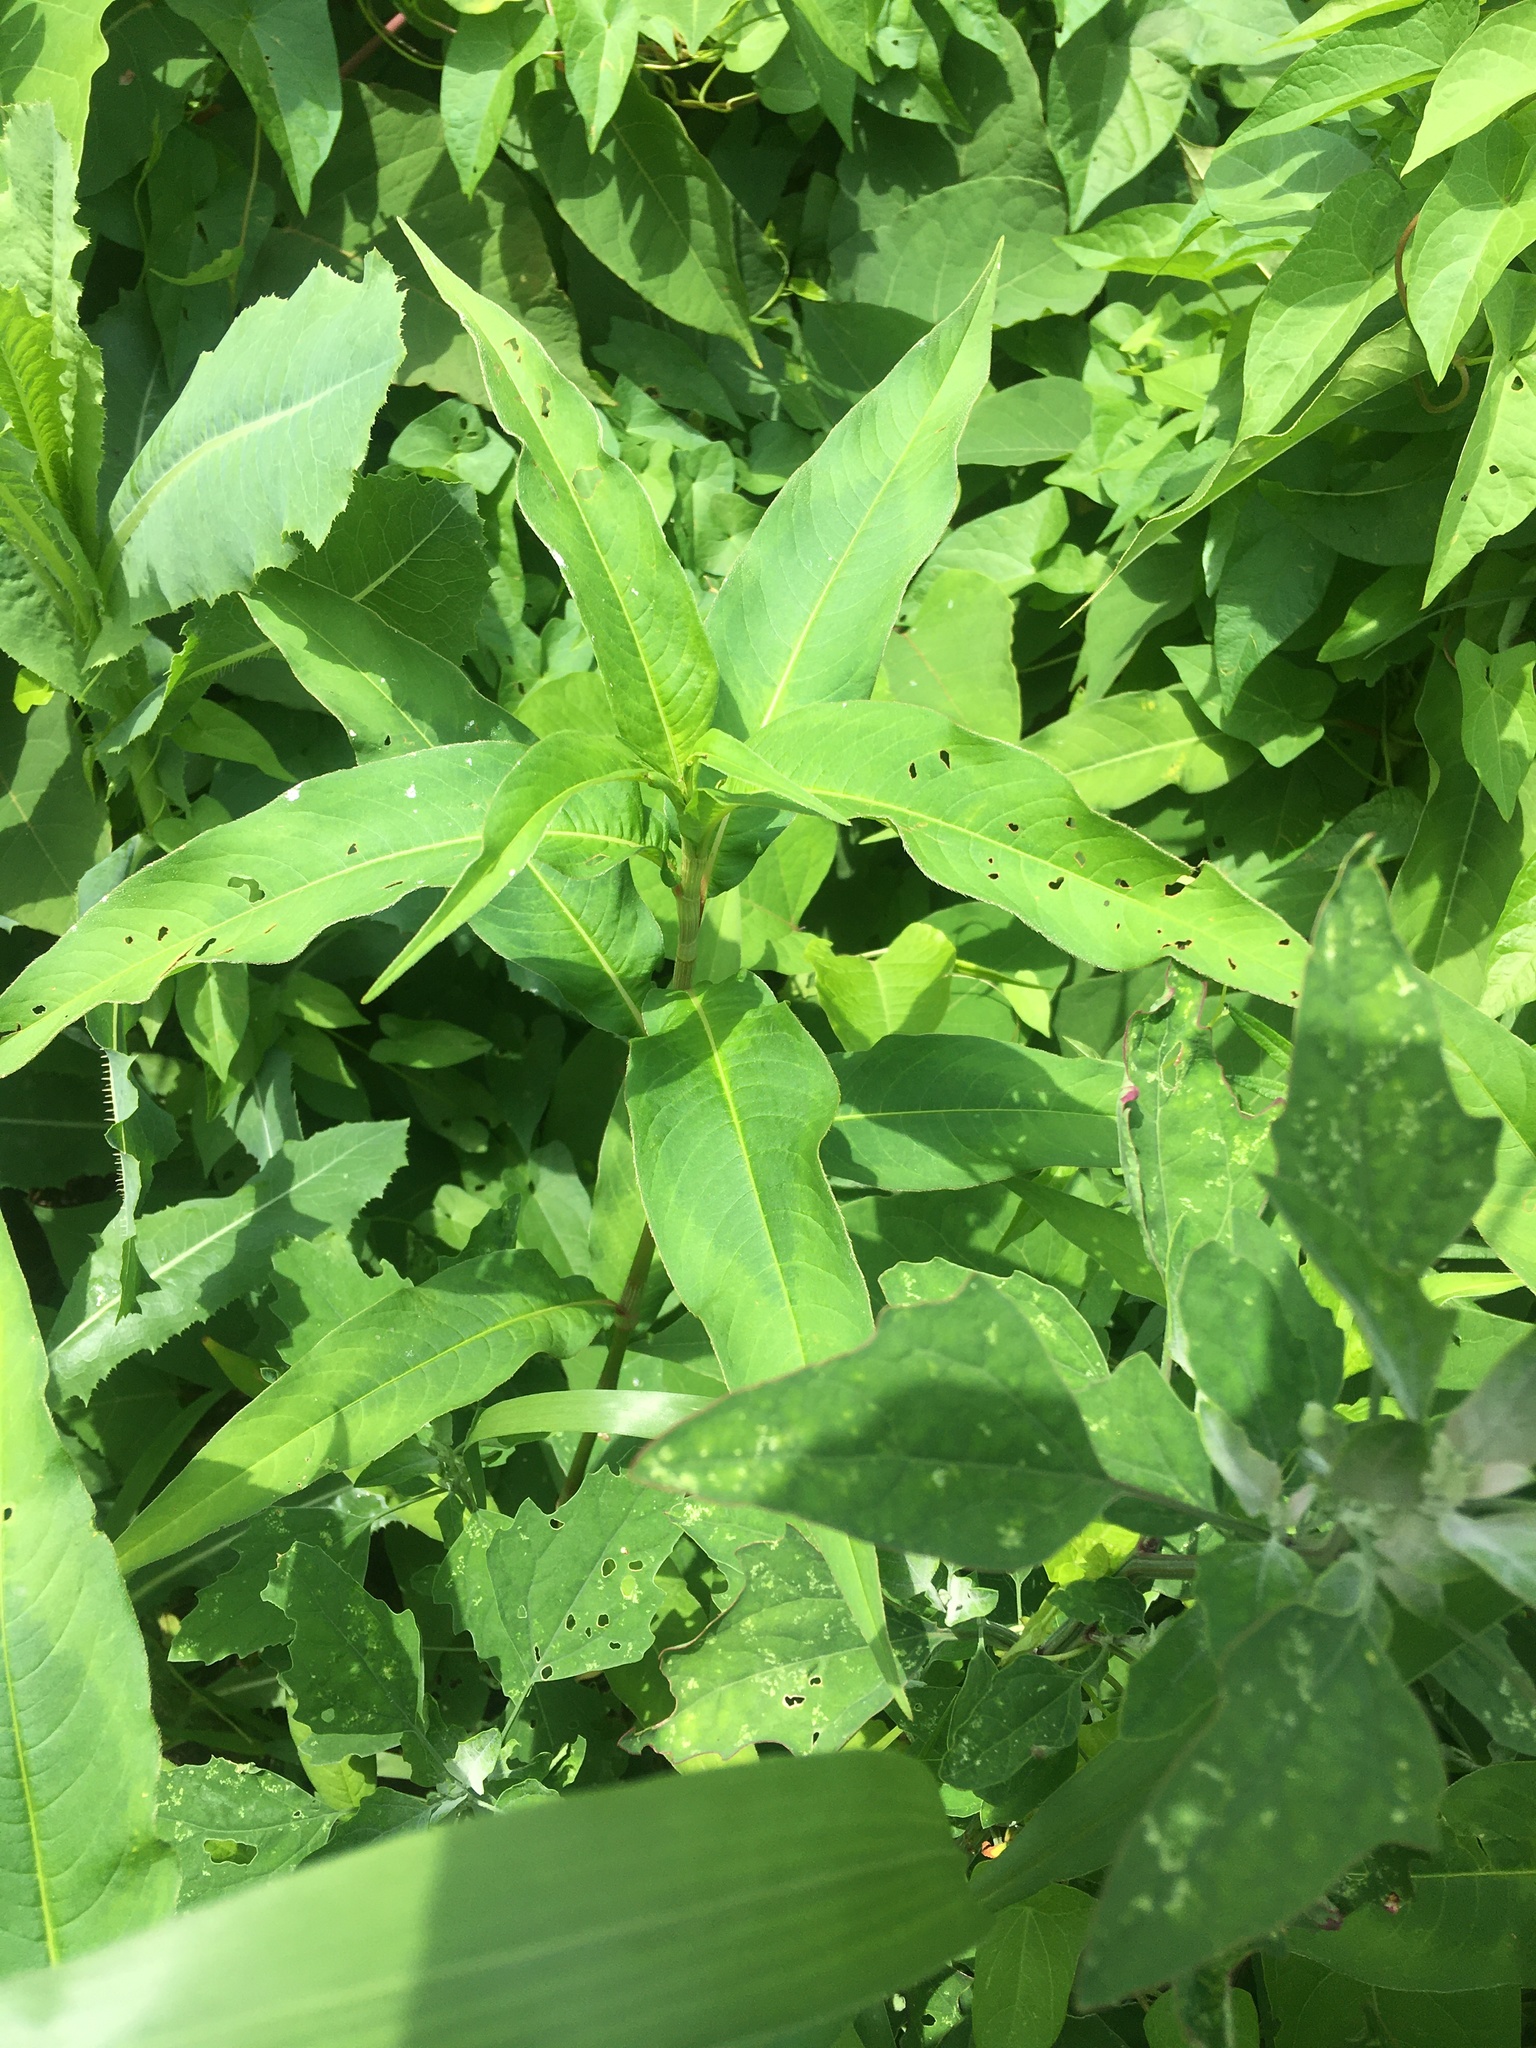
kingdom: Plantae
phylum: Tracheophyta
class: Magnoliopsida
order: Caryophyllales
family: Polygonaceae
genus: Persicaria
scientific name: Persicaria extremiorientalis
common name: Far-eastern smartweed
